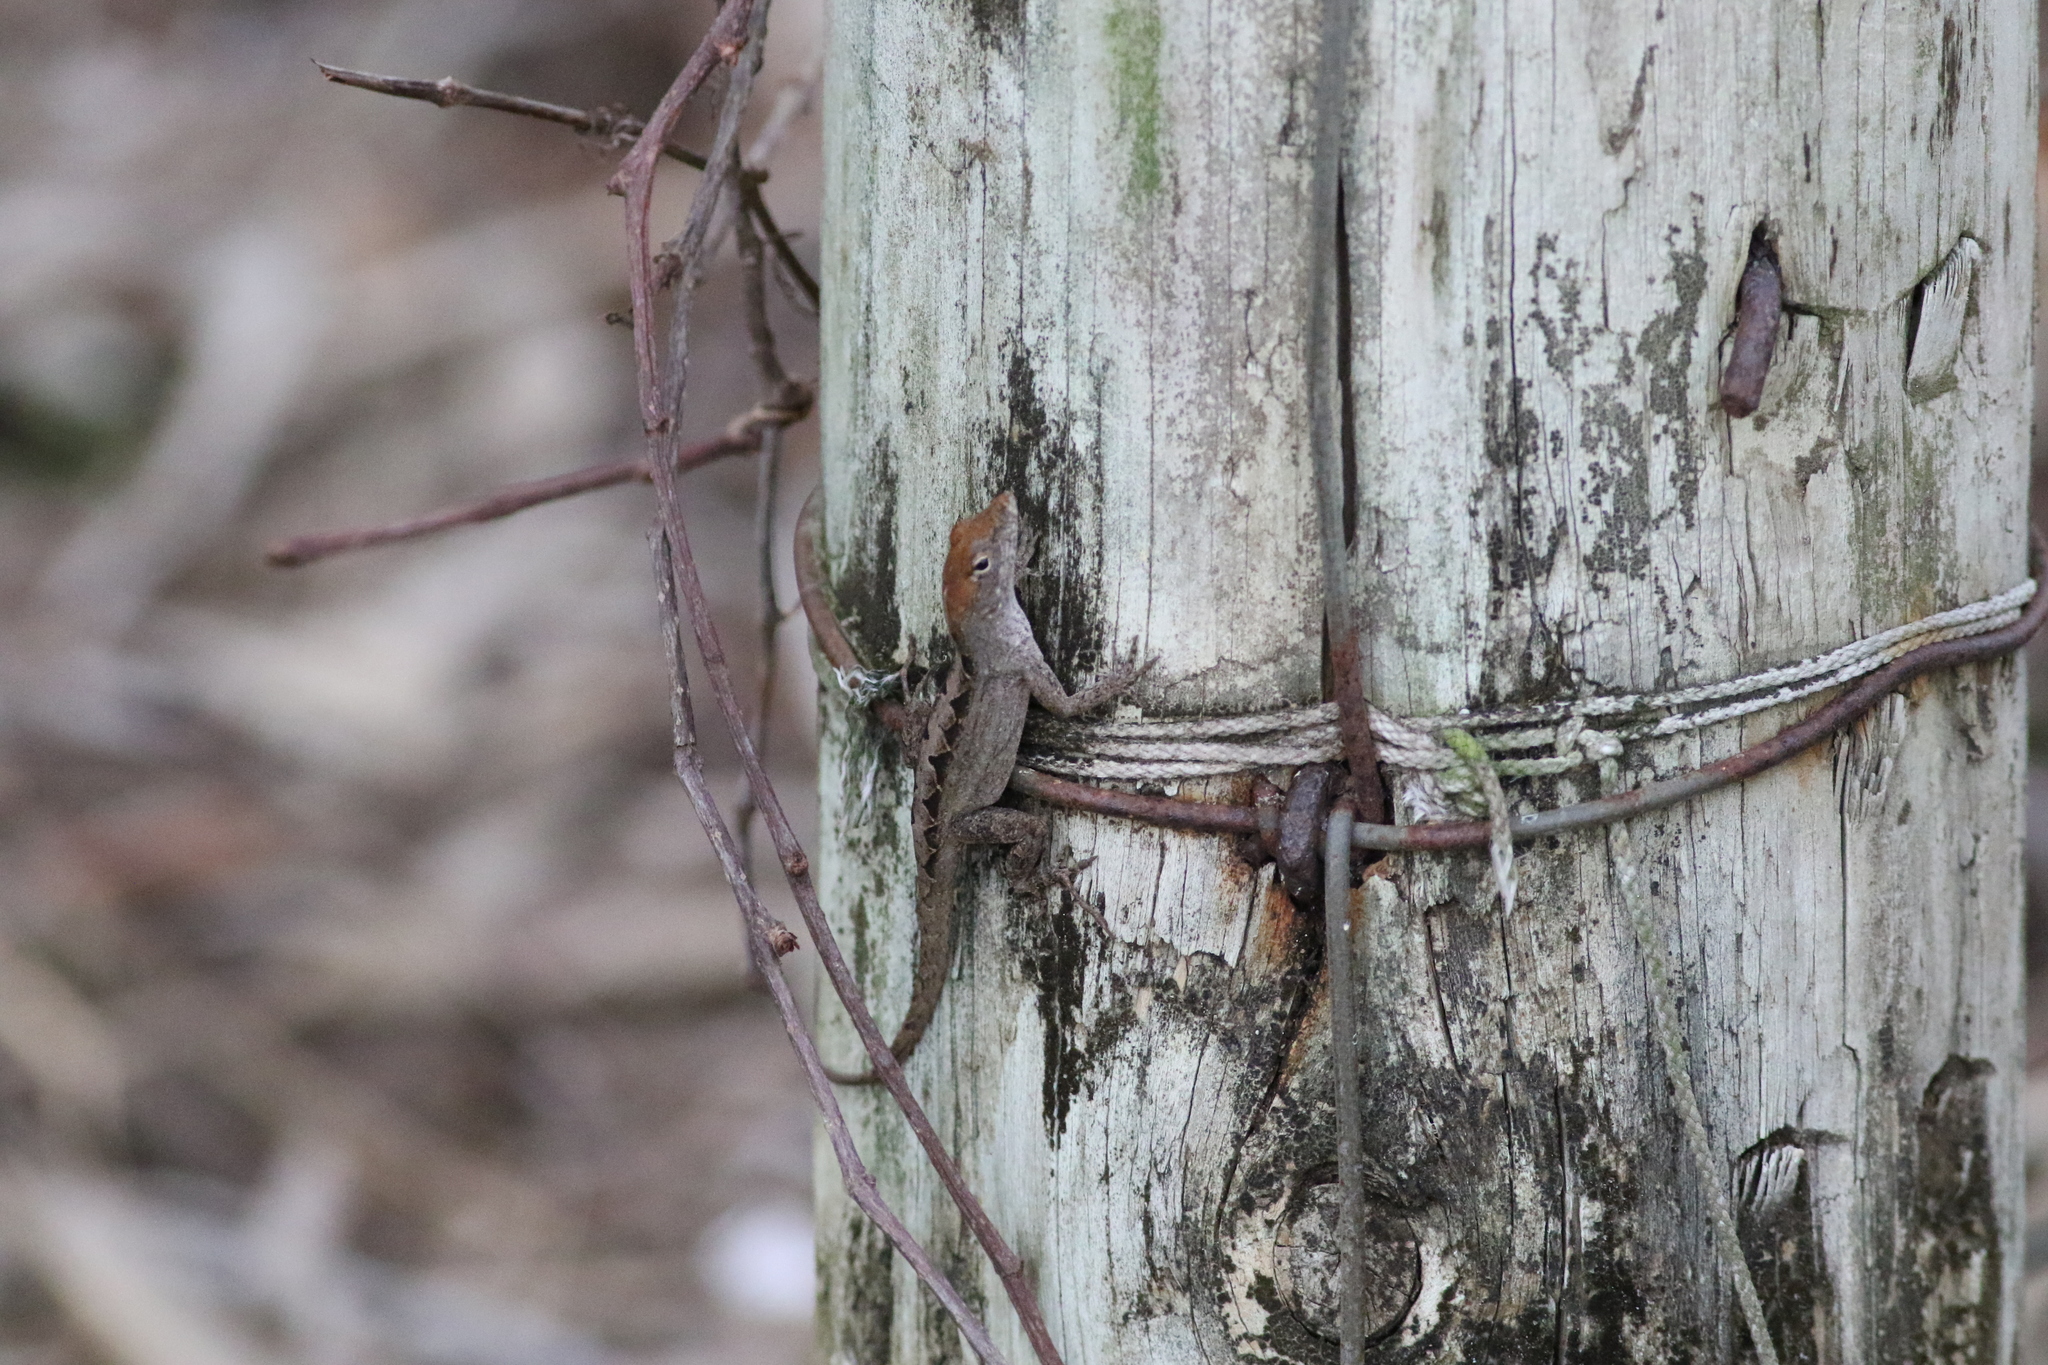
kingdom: Animalia
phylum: Chordata
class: Squamata
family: Dactyloidae
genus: Anolis
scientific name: Anolis sagrei
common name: Brown anole
